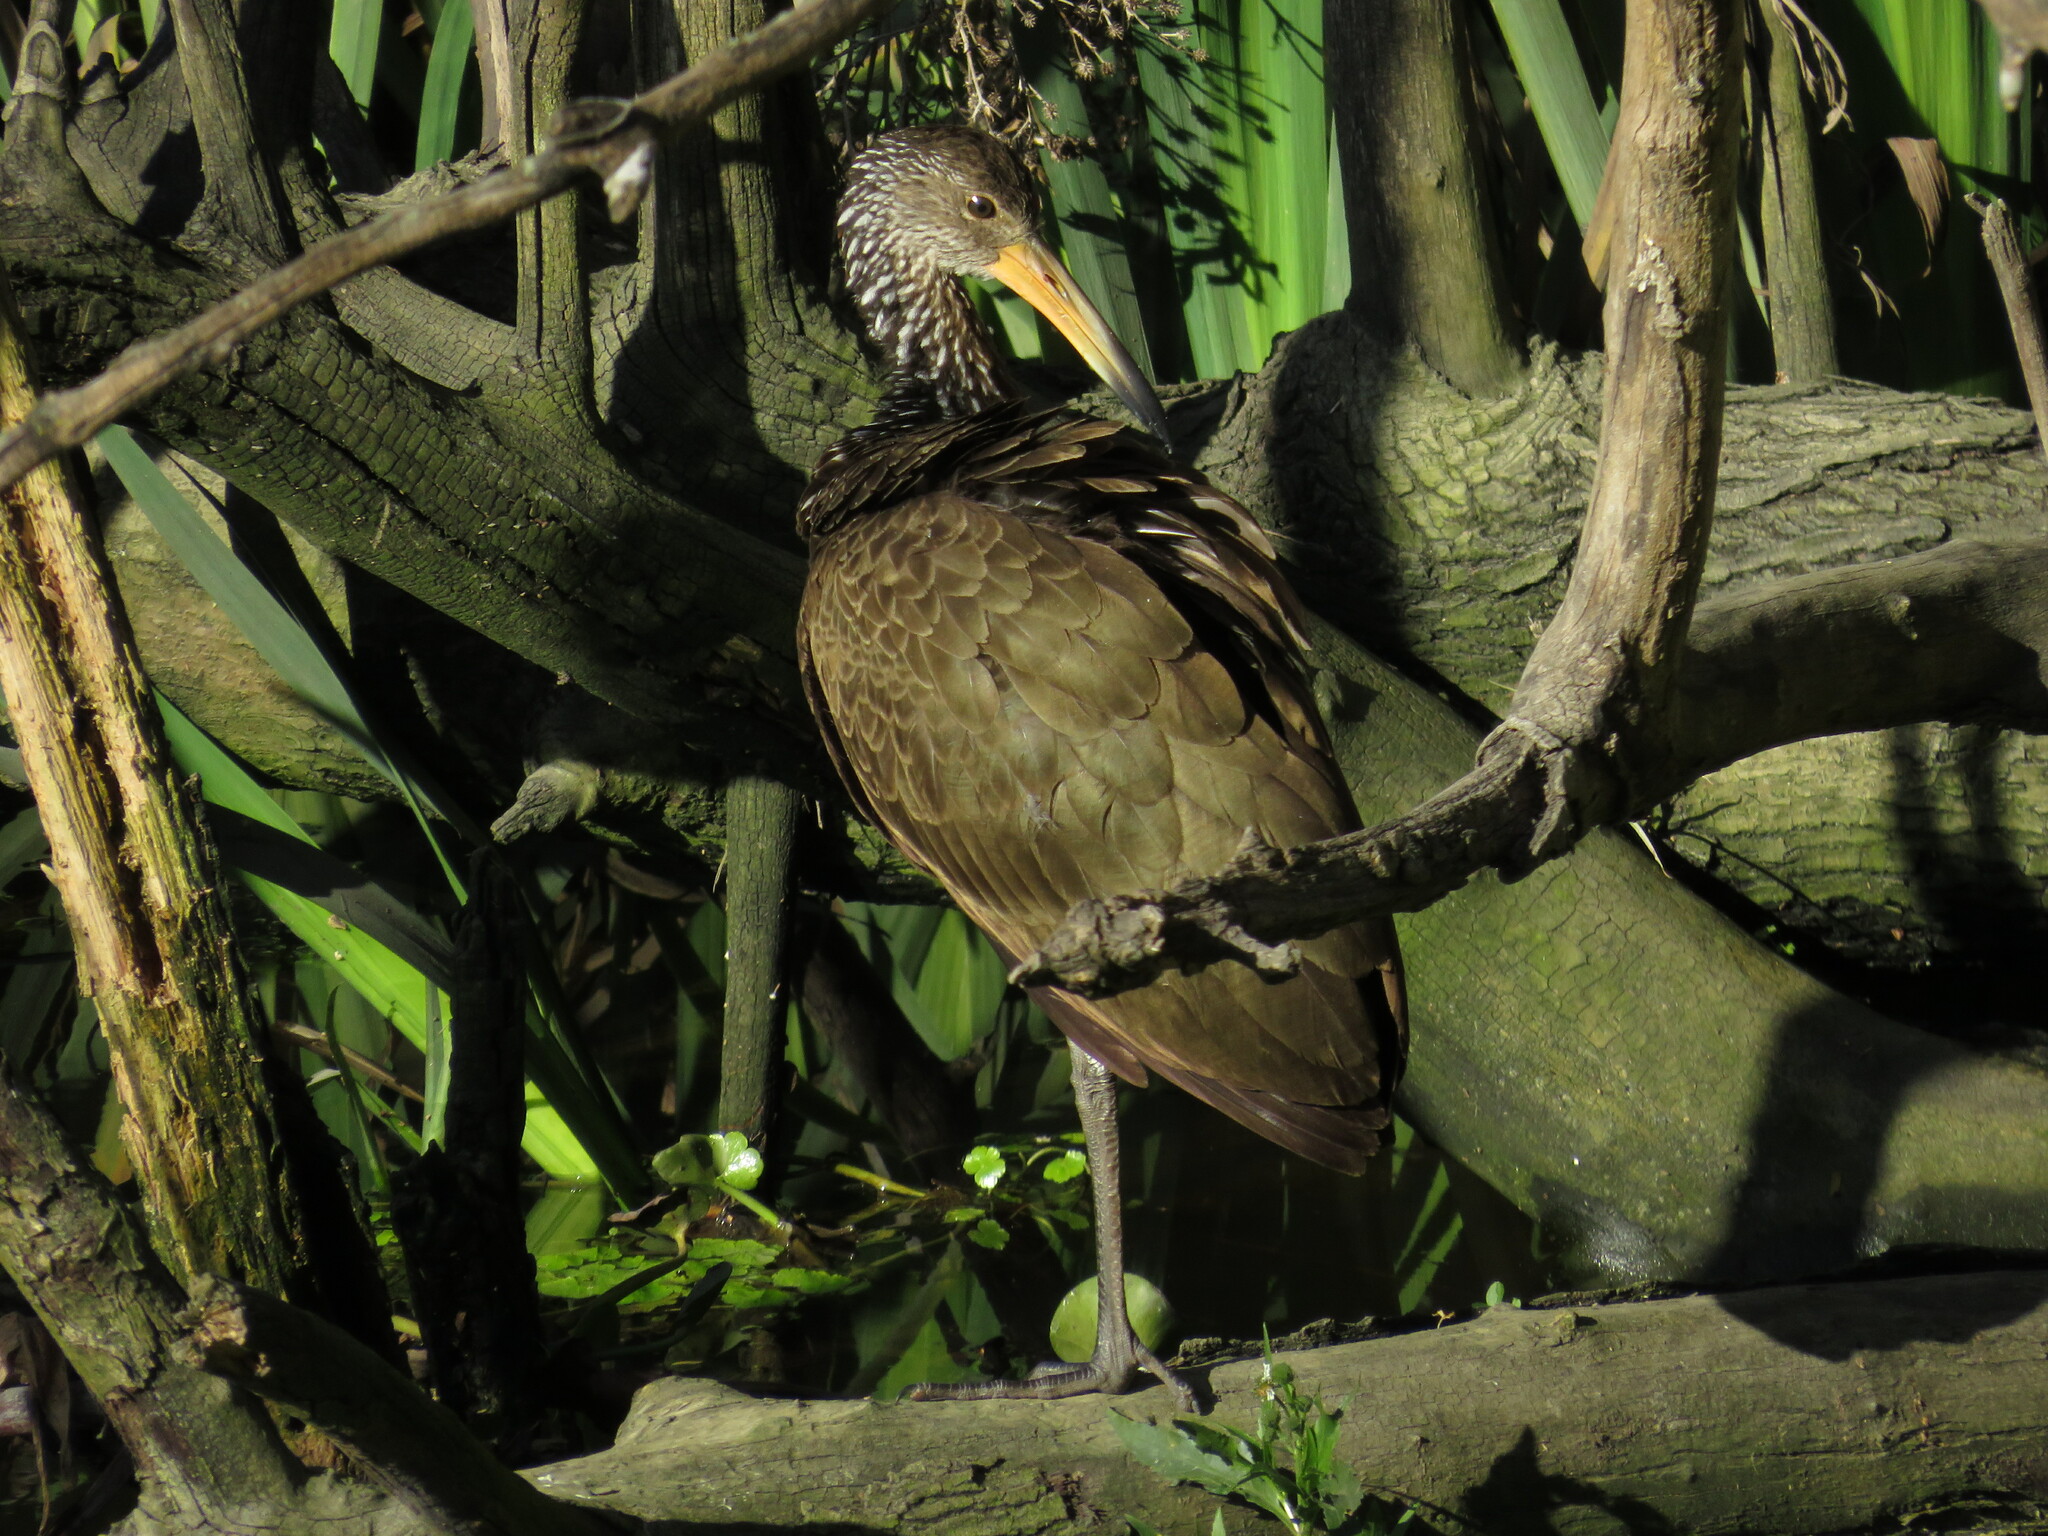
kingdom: Animalia
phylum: Chordata
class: Aves
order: Gruiformes
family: Aramidae
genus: Aramus
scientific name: Aramus guarauna
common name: Limpkin
